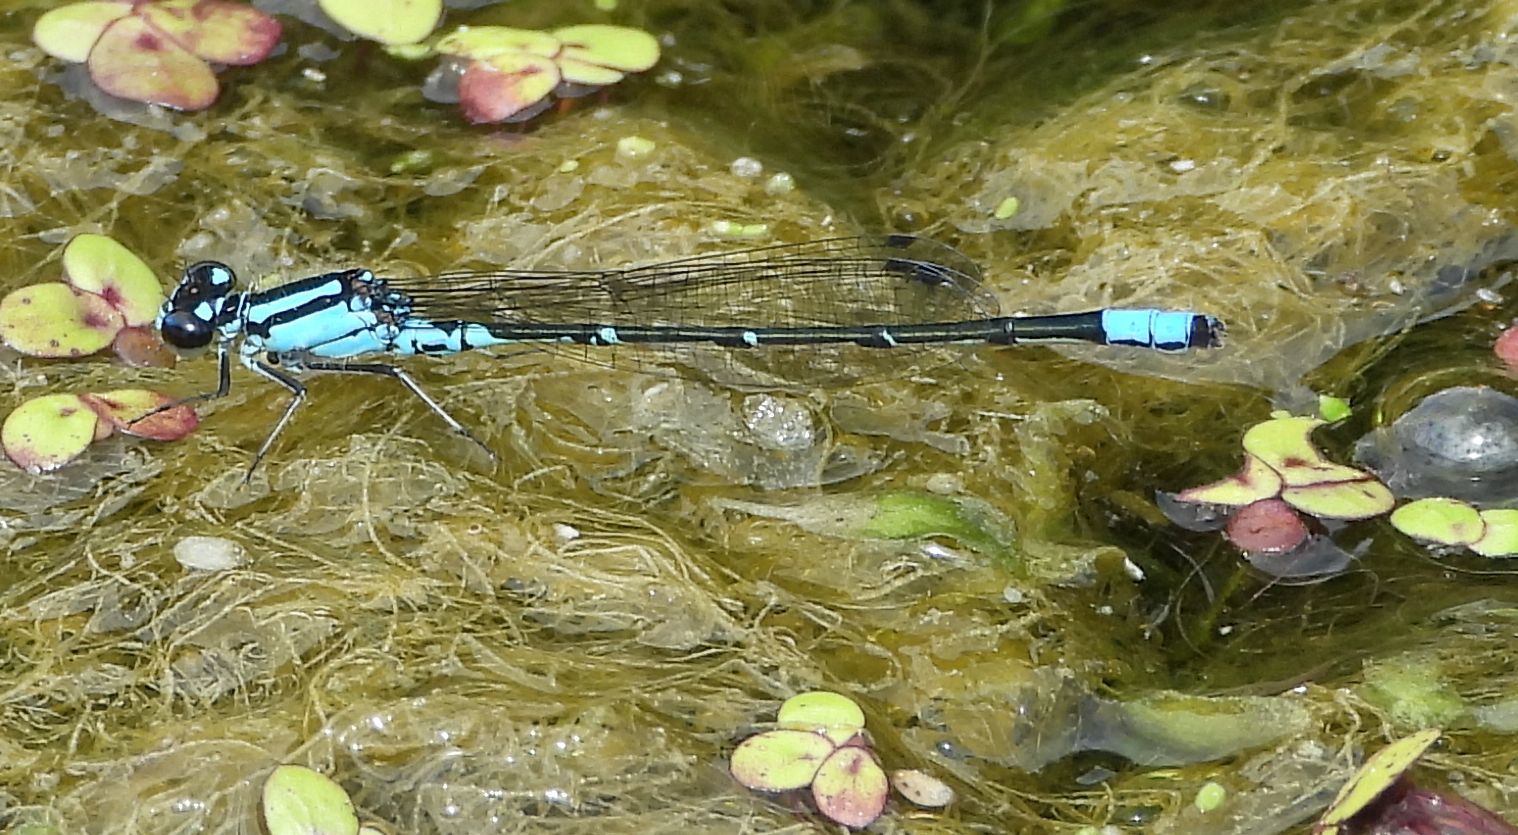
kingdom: Animalia
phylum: Arthropoda
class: Insecta
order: Odonata
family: Coenagrionidae
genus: Enallagma
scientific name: Enallagma geminatum
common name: Skimming bluet
